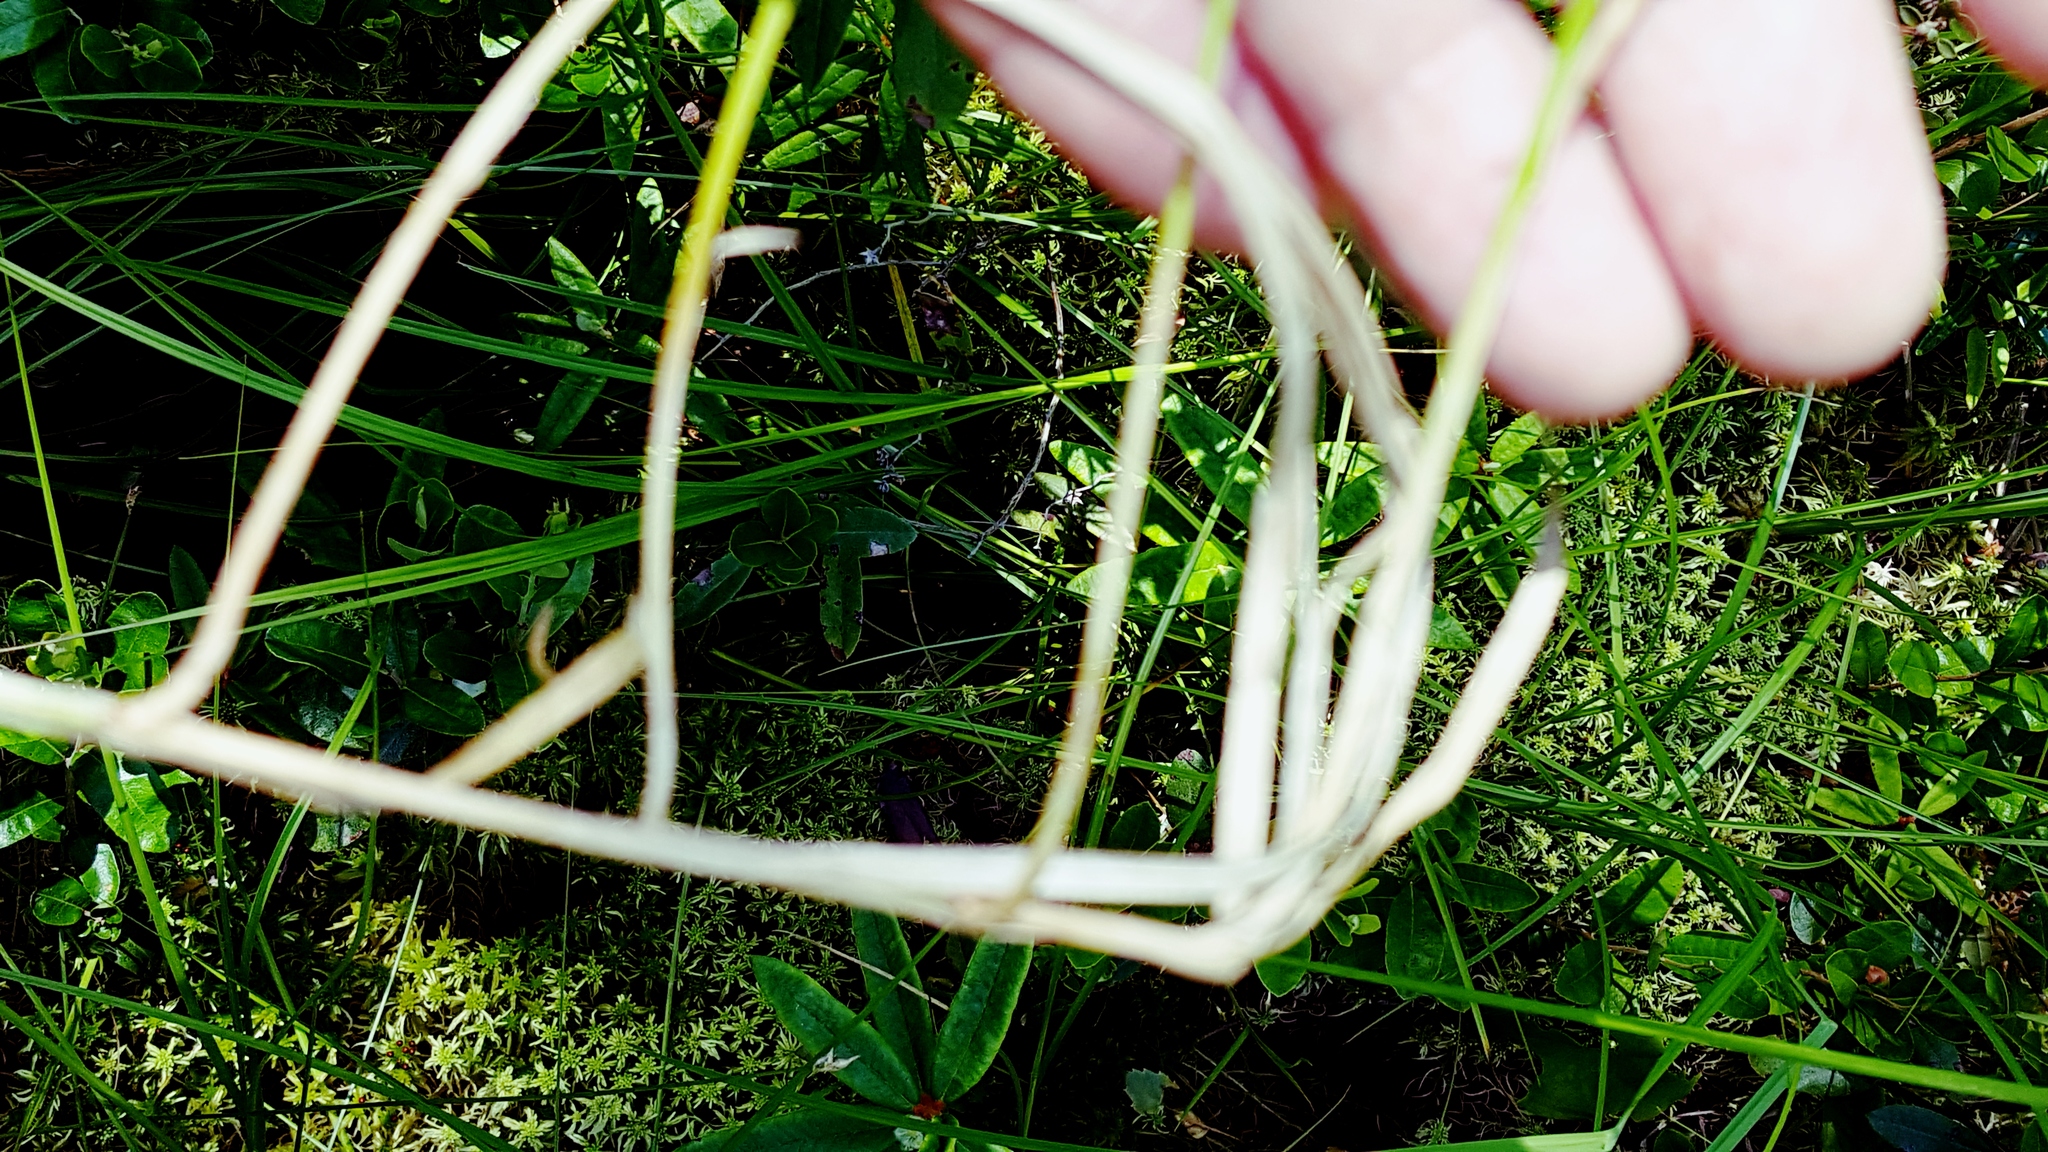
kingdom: Plantae
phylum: Tracheophyta
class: Liliopsida
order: Poales
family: Cyperaceae
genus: Carex
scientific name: Carex chordorrhiza
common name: String sedge
